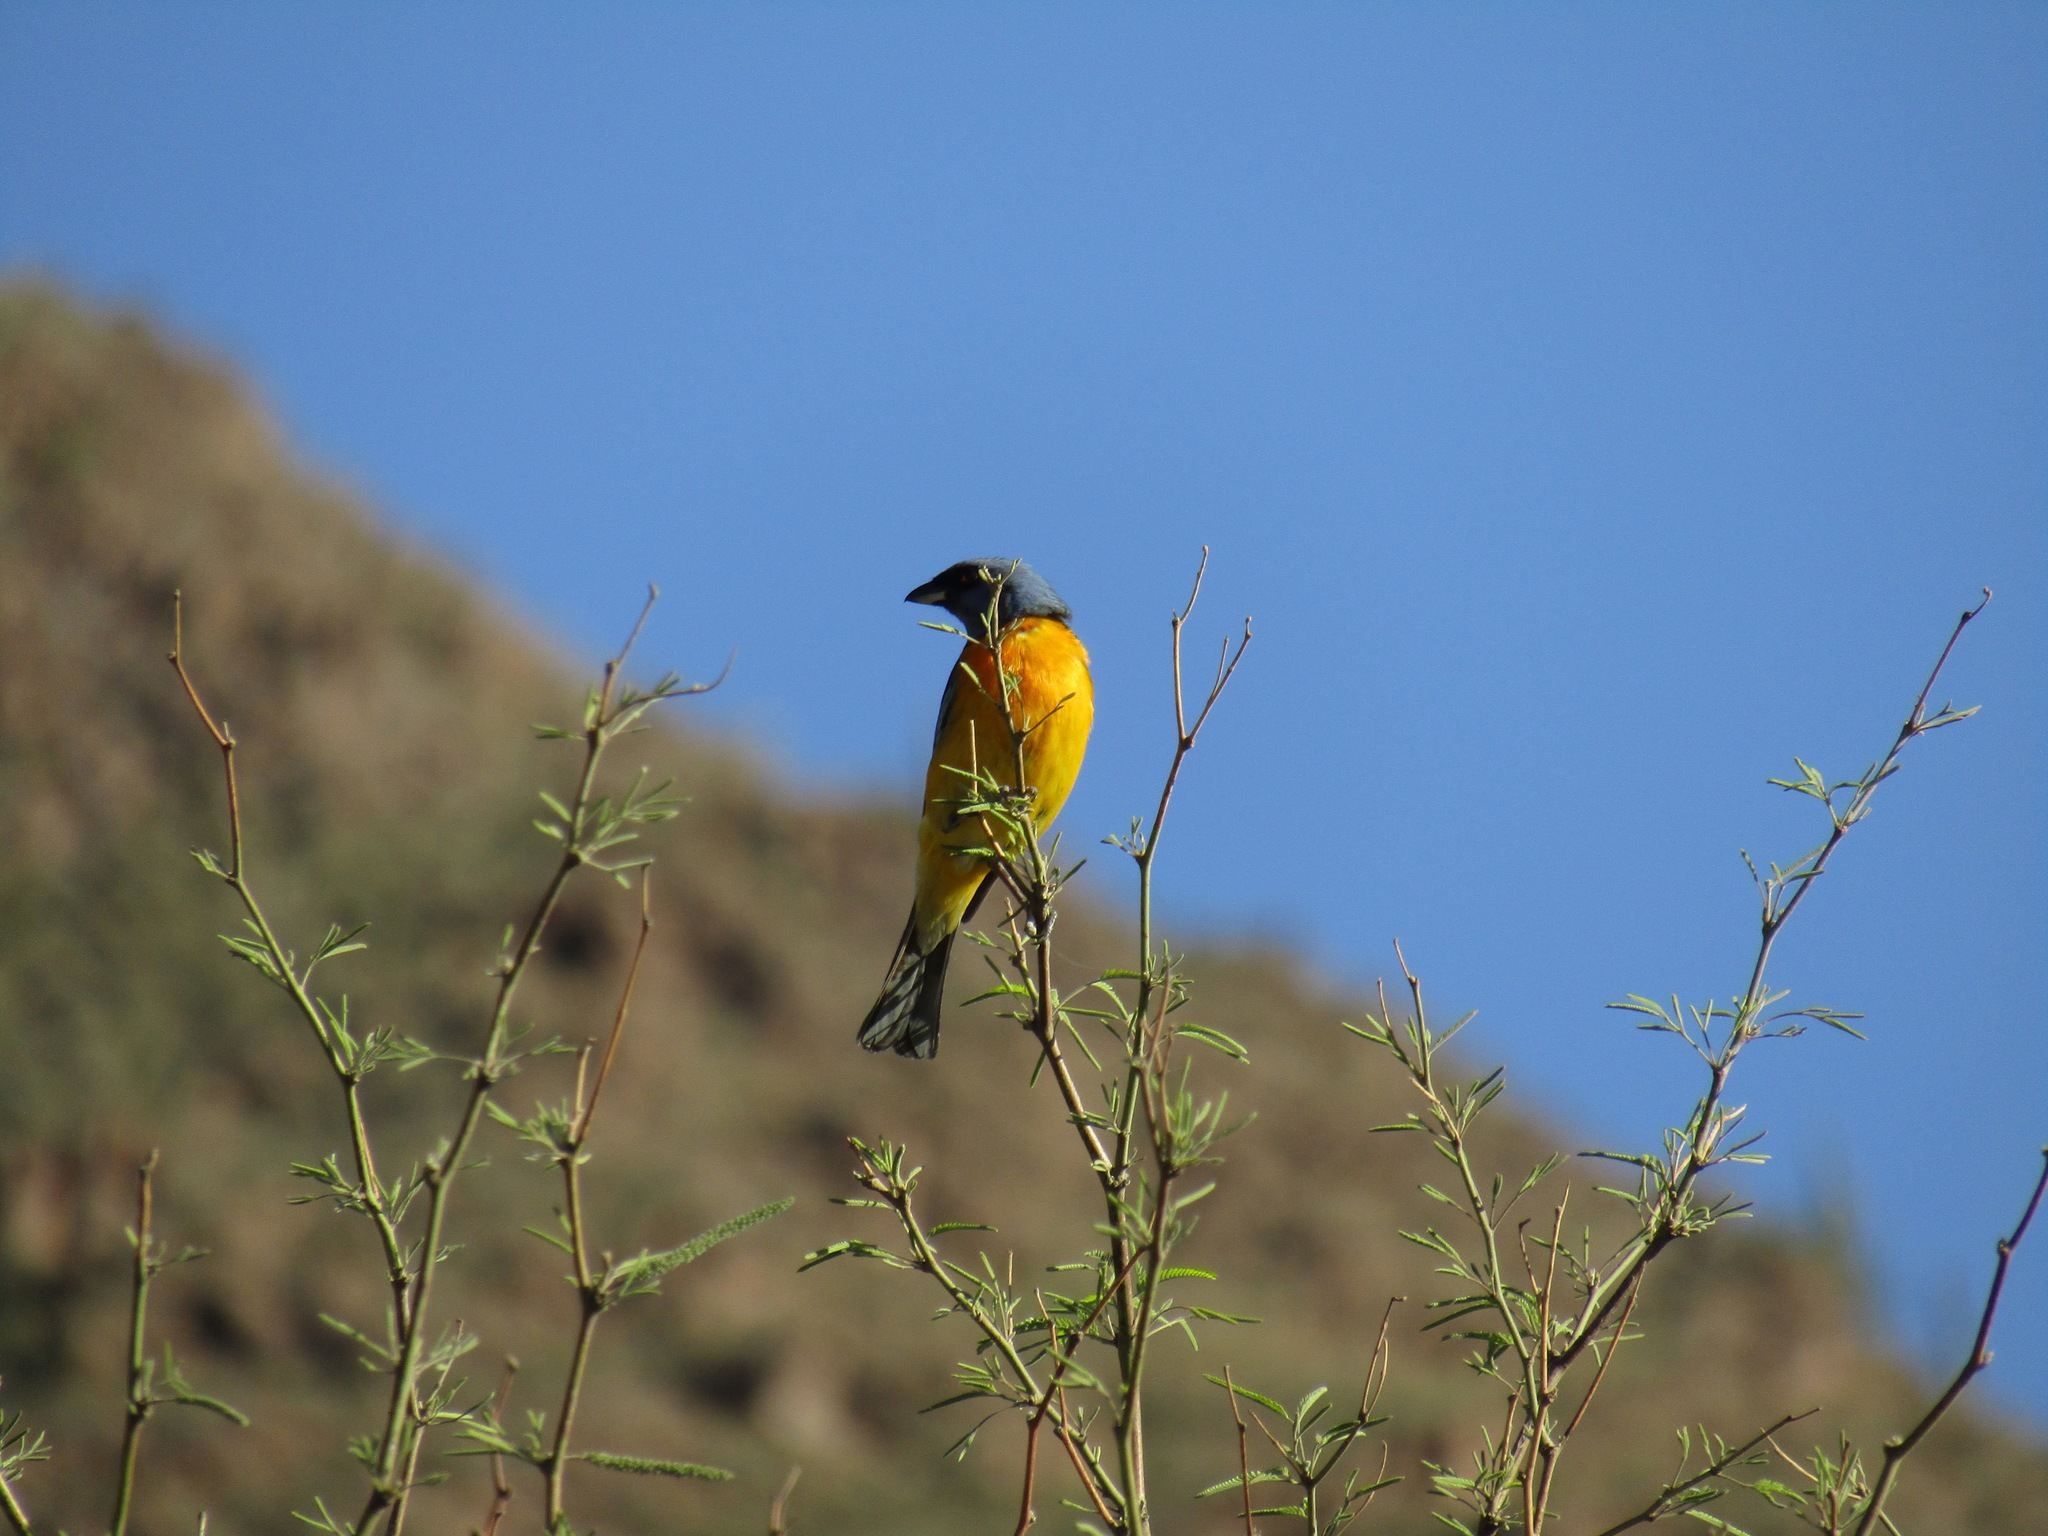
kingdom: Animalia
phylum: Chordata
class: Aves
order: Passeriformes
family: Thraupidae
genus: Rauenia
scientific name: Rauenia bonariensis
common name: Blue-and-yellow tanager
